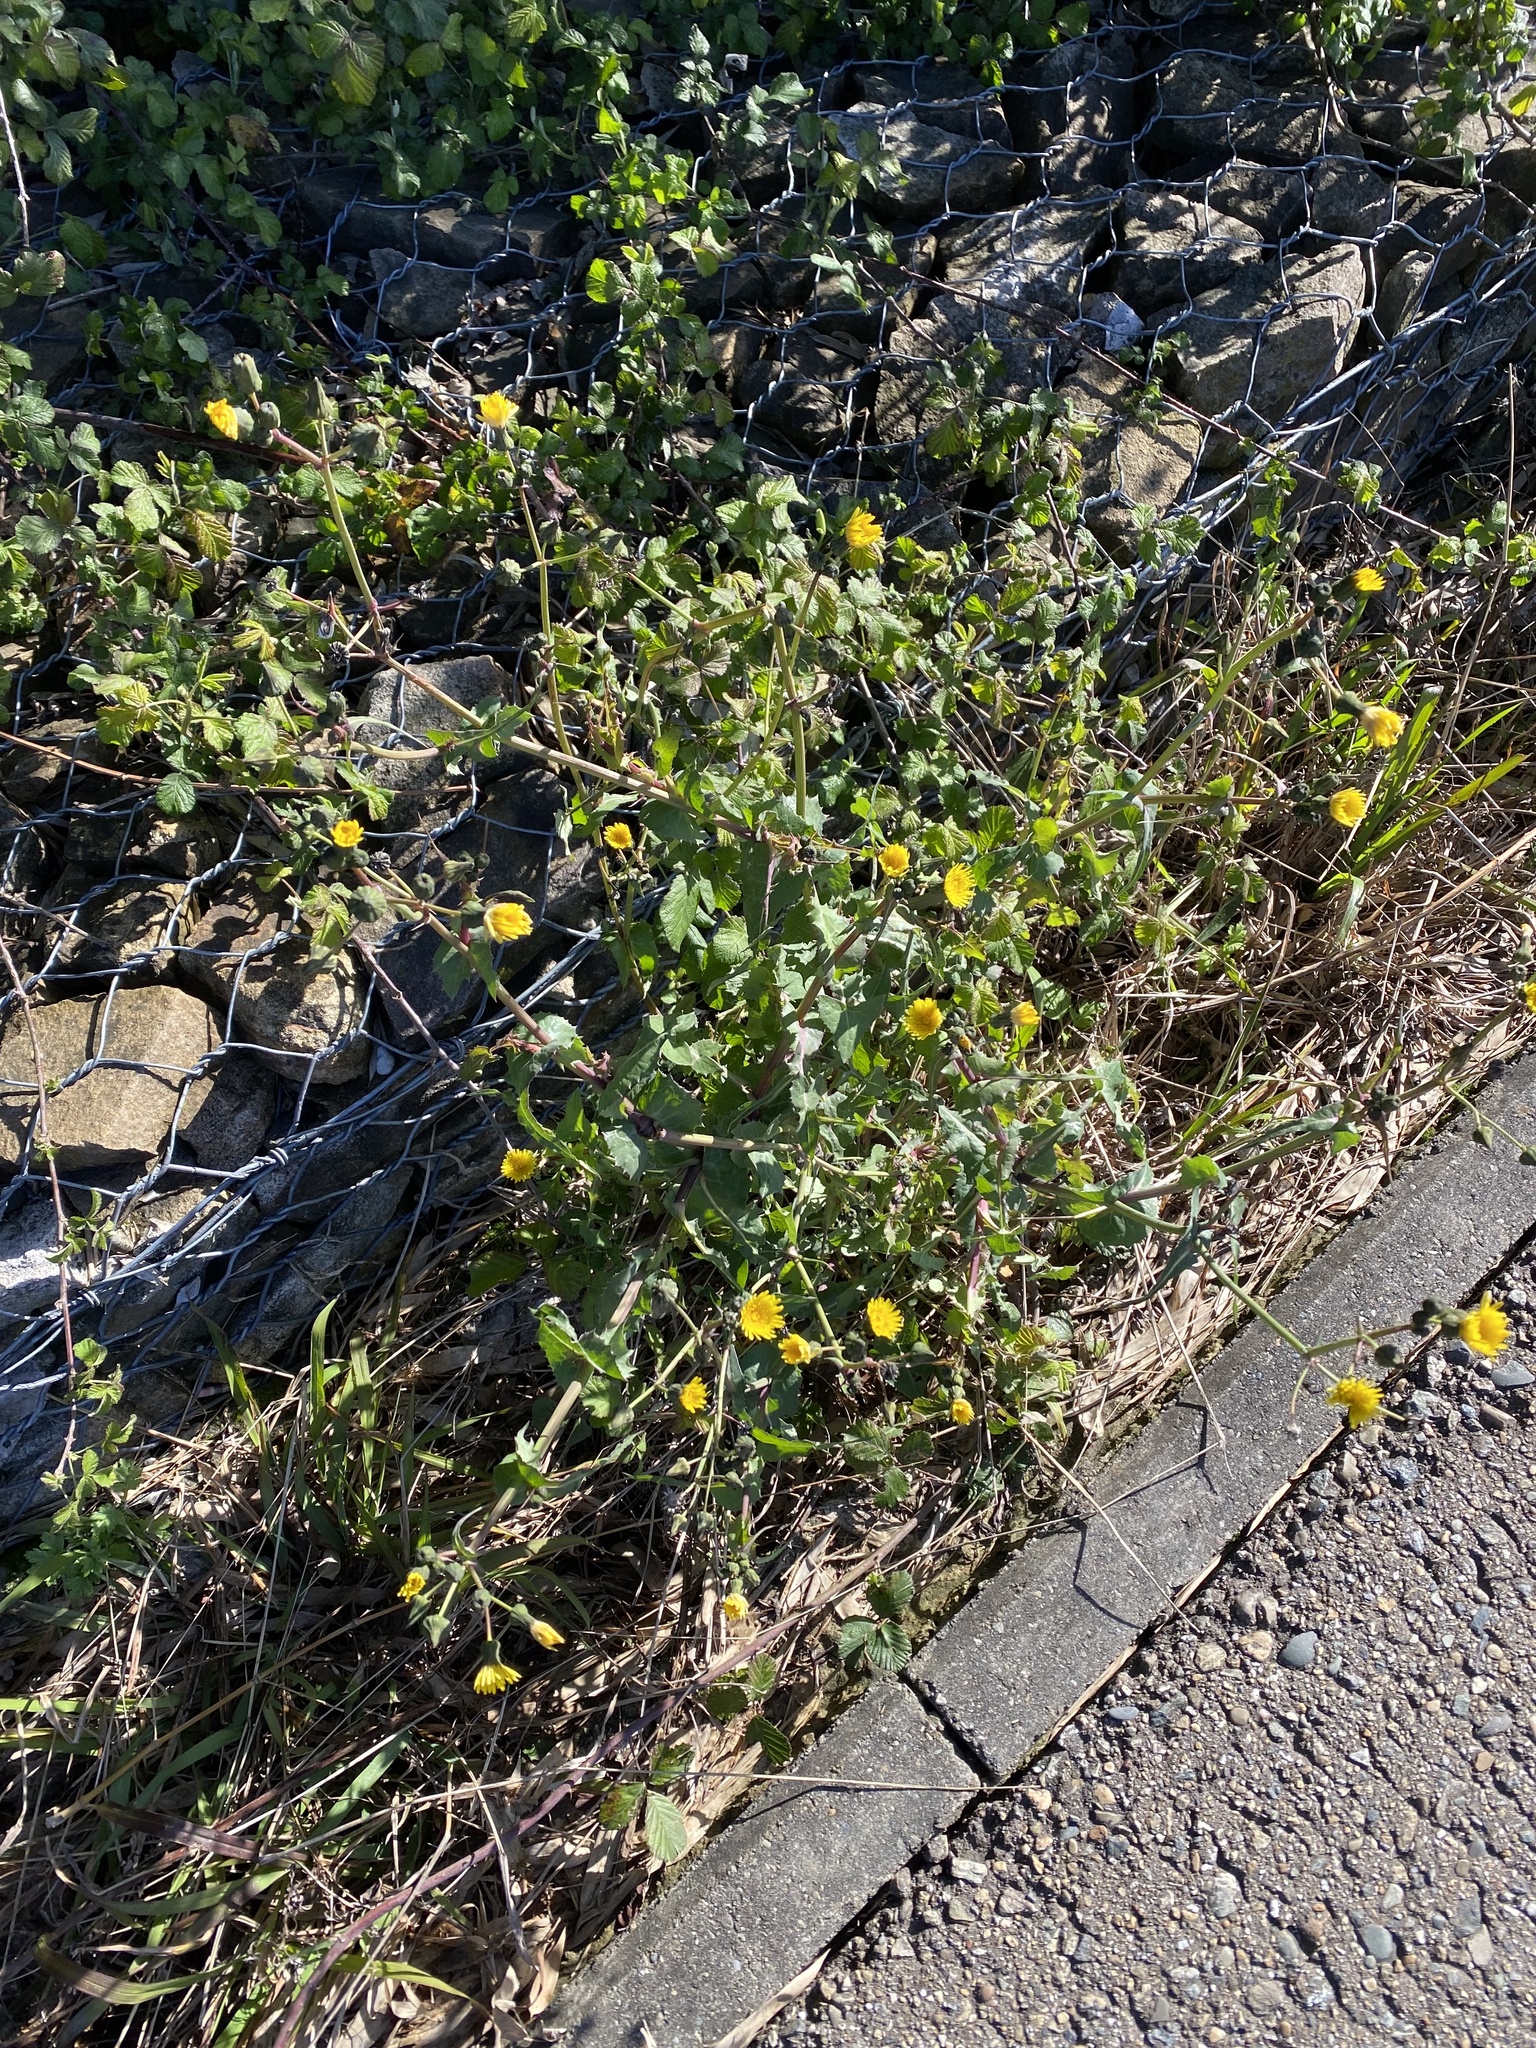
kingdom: Plantae
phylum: Tracheophyta
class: Magnoliopsida
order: Asterales
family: Asteraceae
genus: Sonchus
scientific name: Sonchus oleraceus
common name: Common sowthistle
